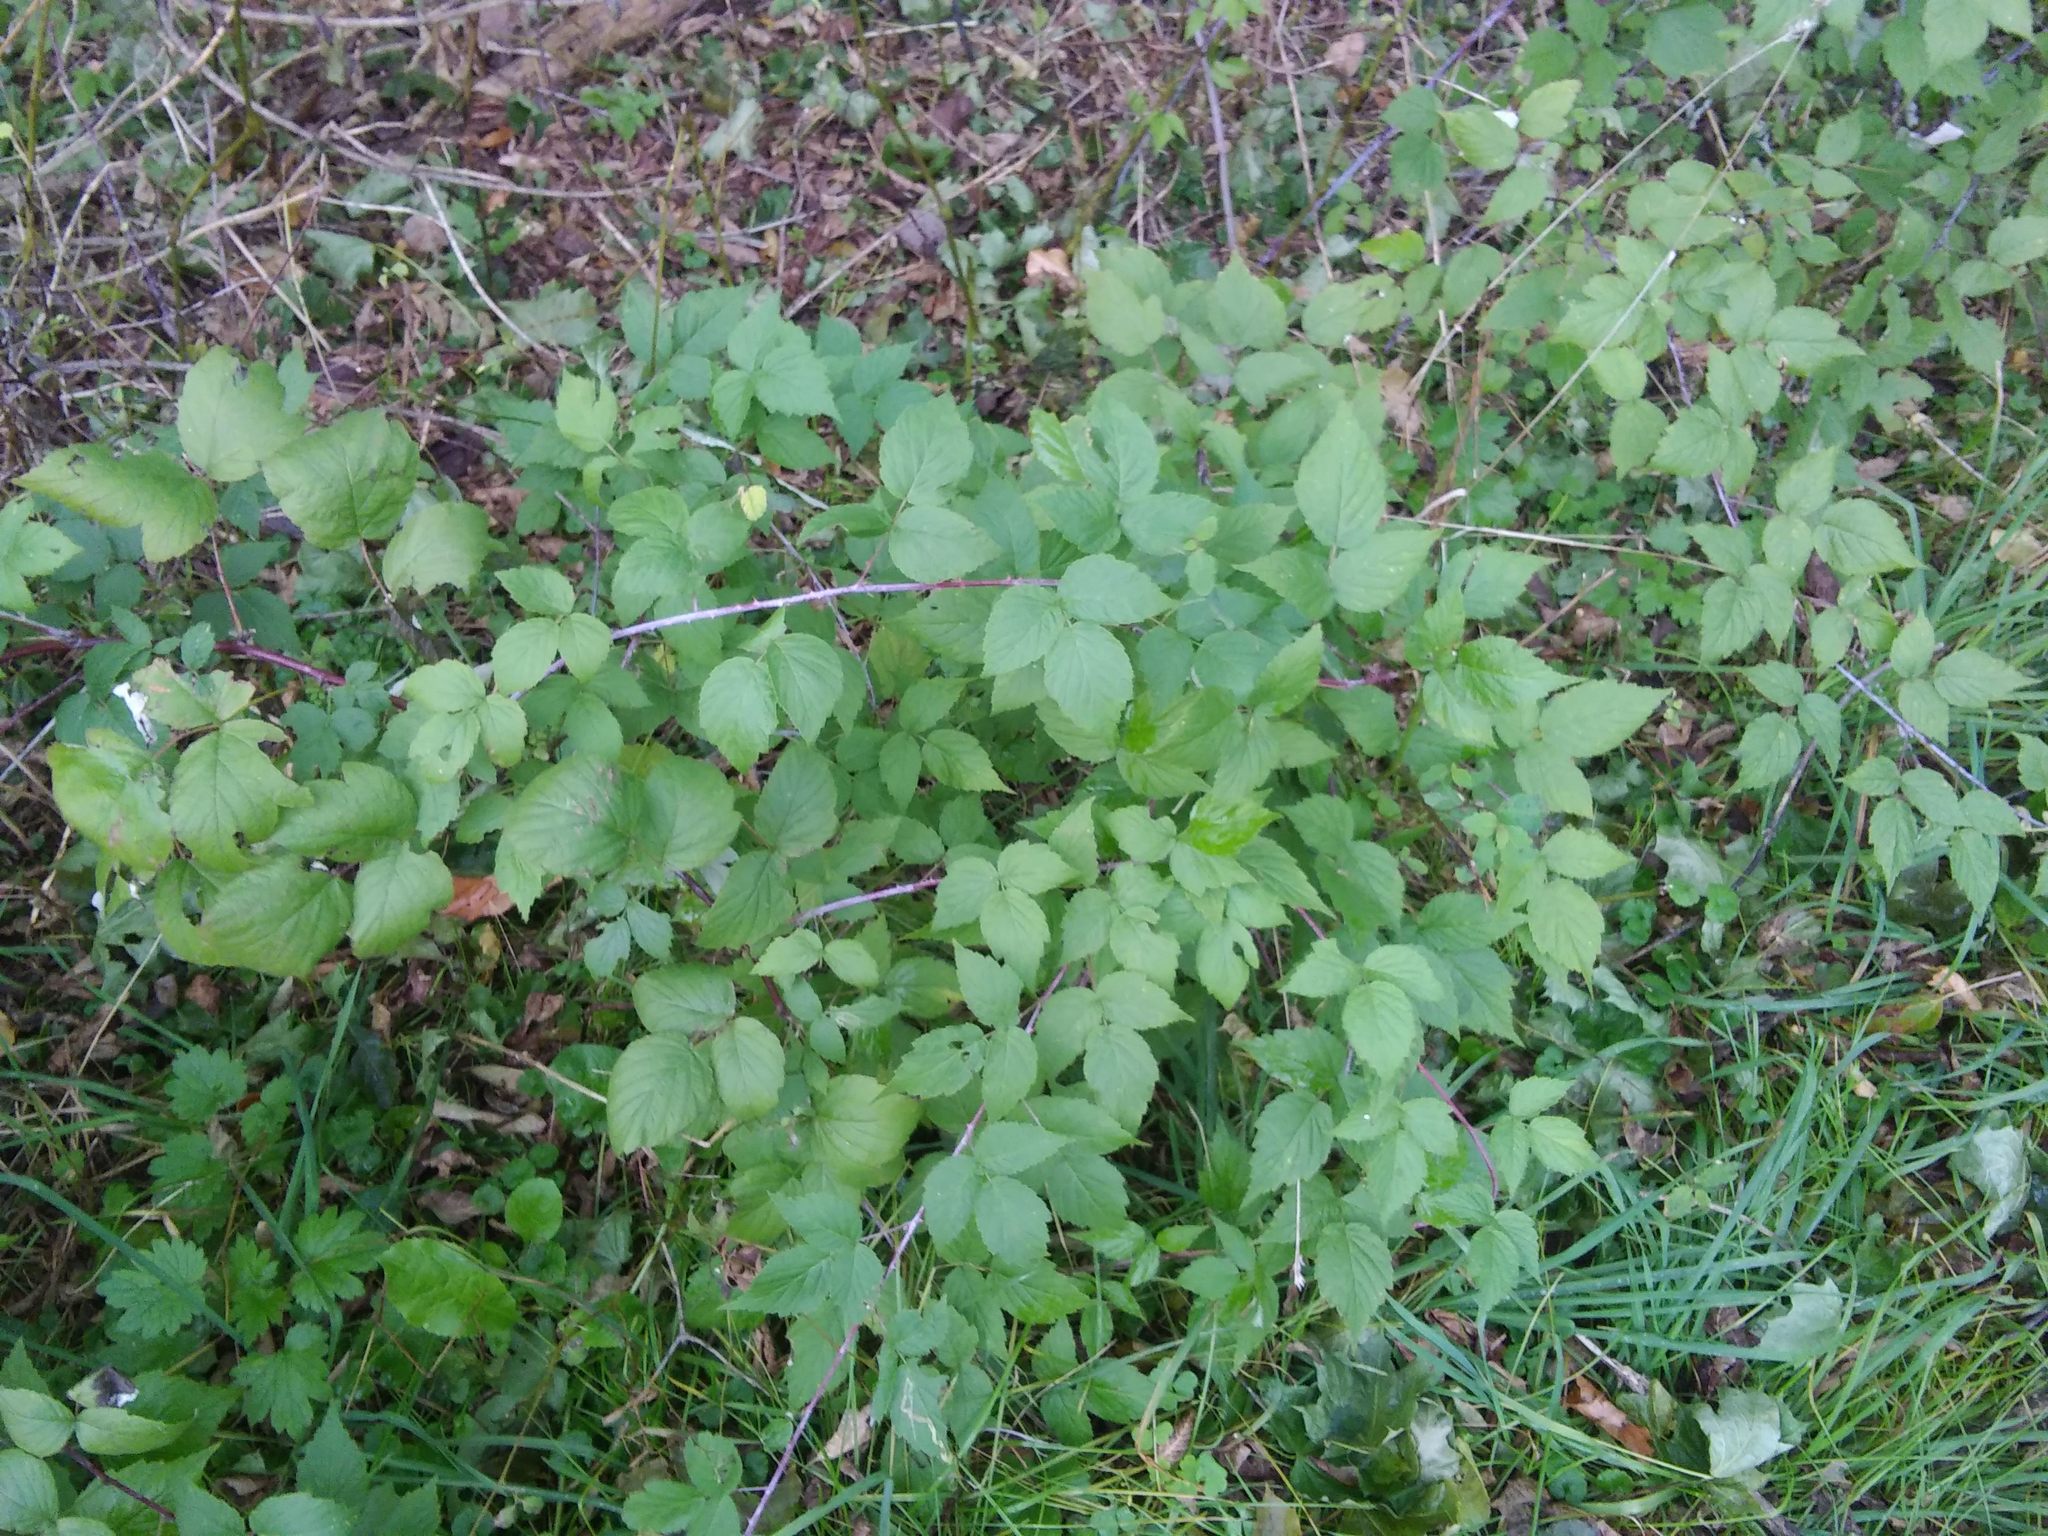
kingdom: Plantae
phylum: Tracheophyta
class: Magnoliopsida
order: Rosales
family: Rosaceae
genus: Rubus
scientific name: Rubus occidentalis
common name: Black raspberry
